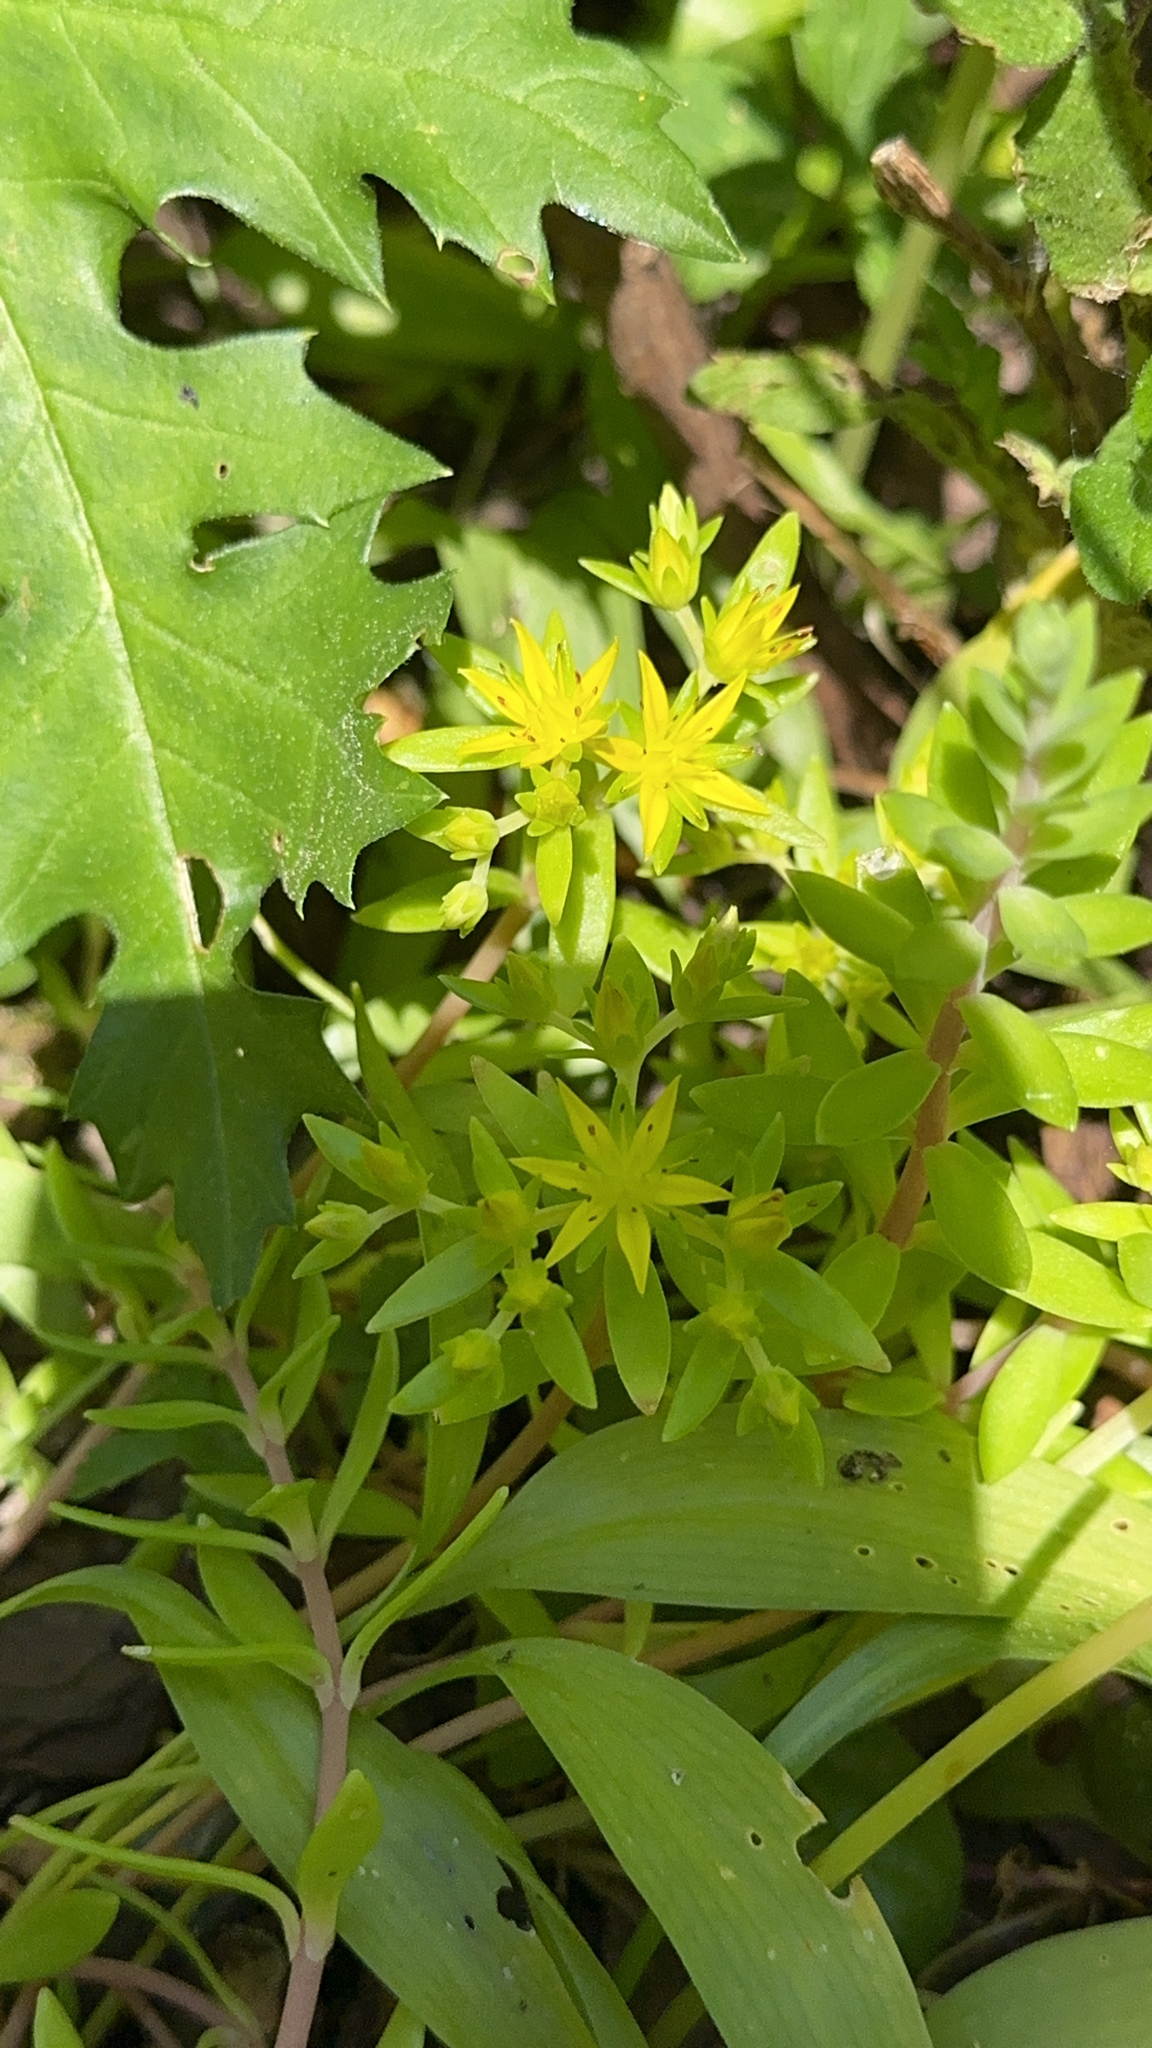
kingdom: Plantae
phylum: Tracheophyta
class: Magnoliopsida
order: Saxifragales
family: Crassulaceae
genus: Sedum
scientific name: Sedum sarmentosum
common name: Stringy stonecrop
